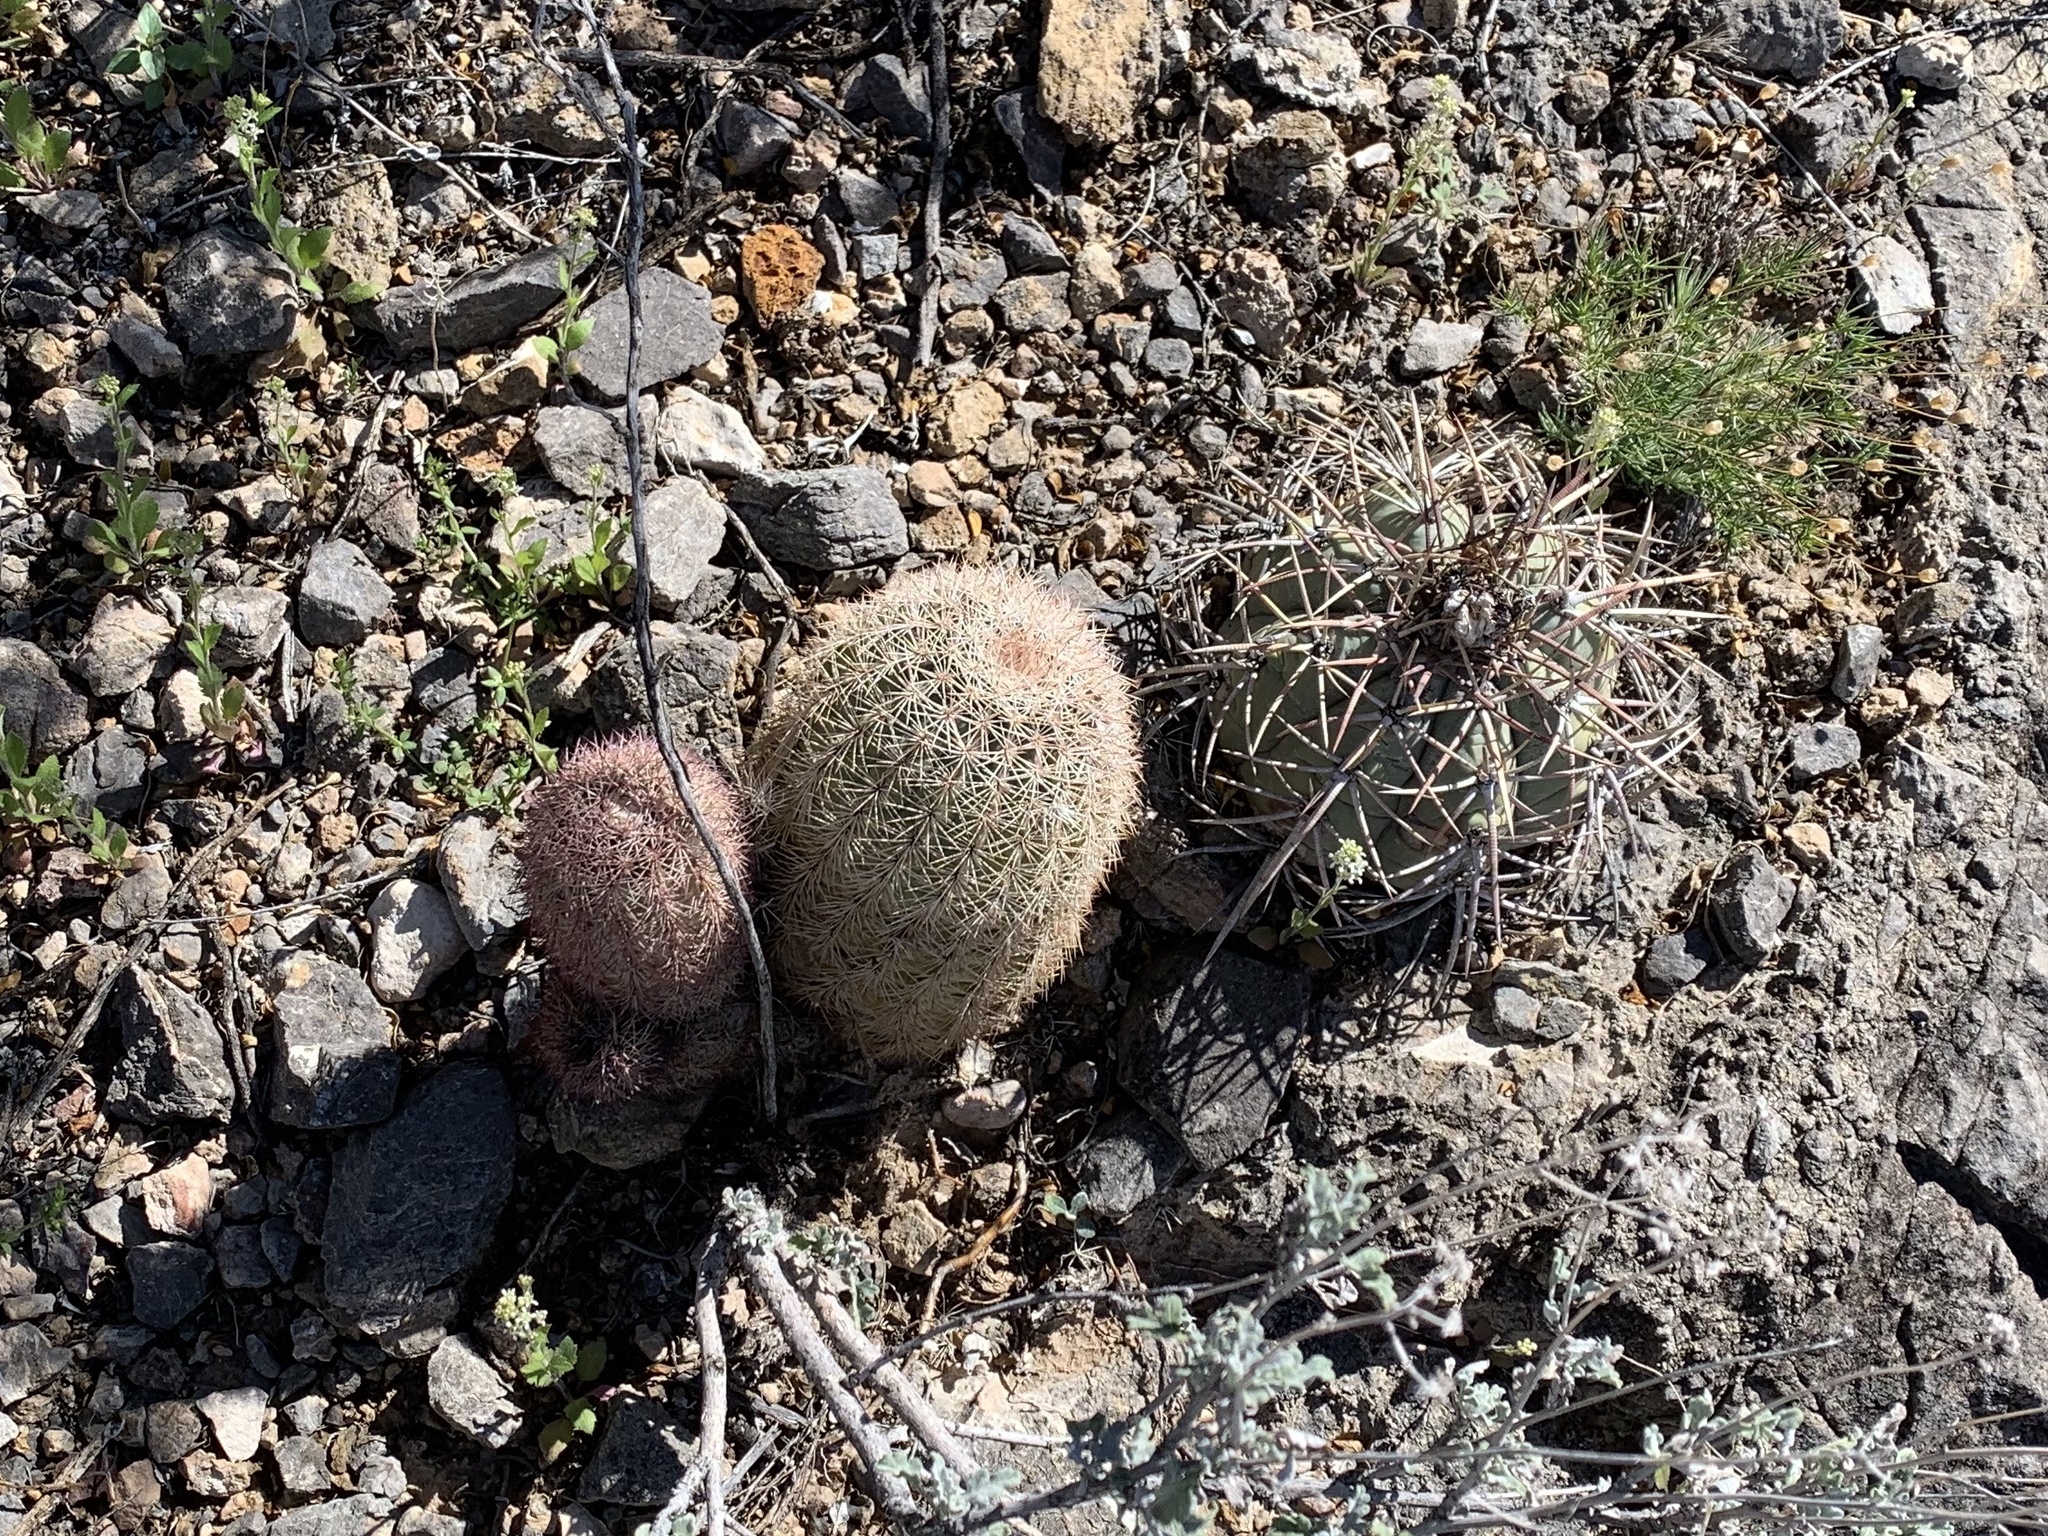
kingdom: Plantae
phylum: Tracheophyta
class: Magnoliopsida
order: Caryophyllales
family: Cactaceae
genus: Echinocactus
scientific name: Echinocactus horizonthalonius
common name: Devilshead
